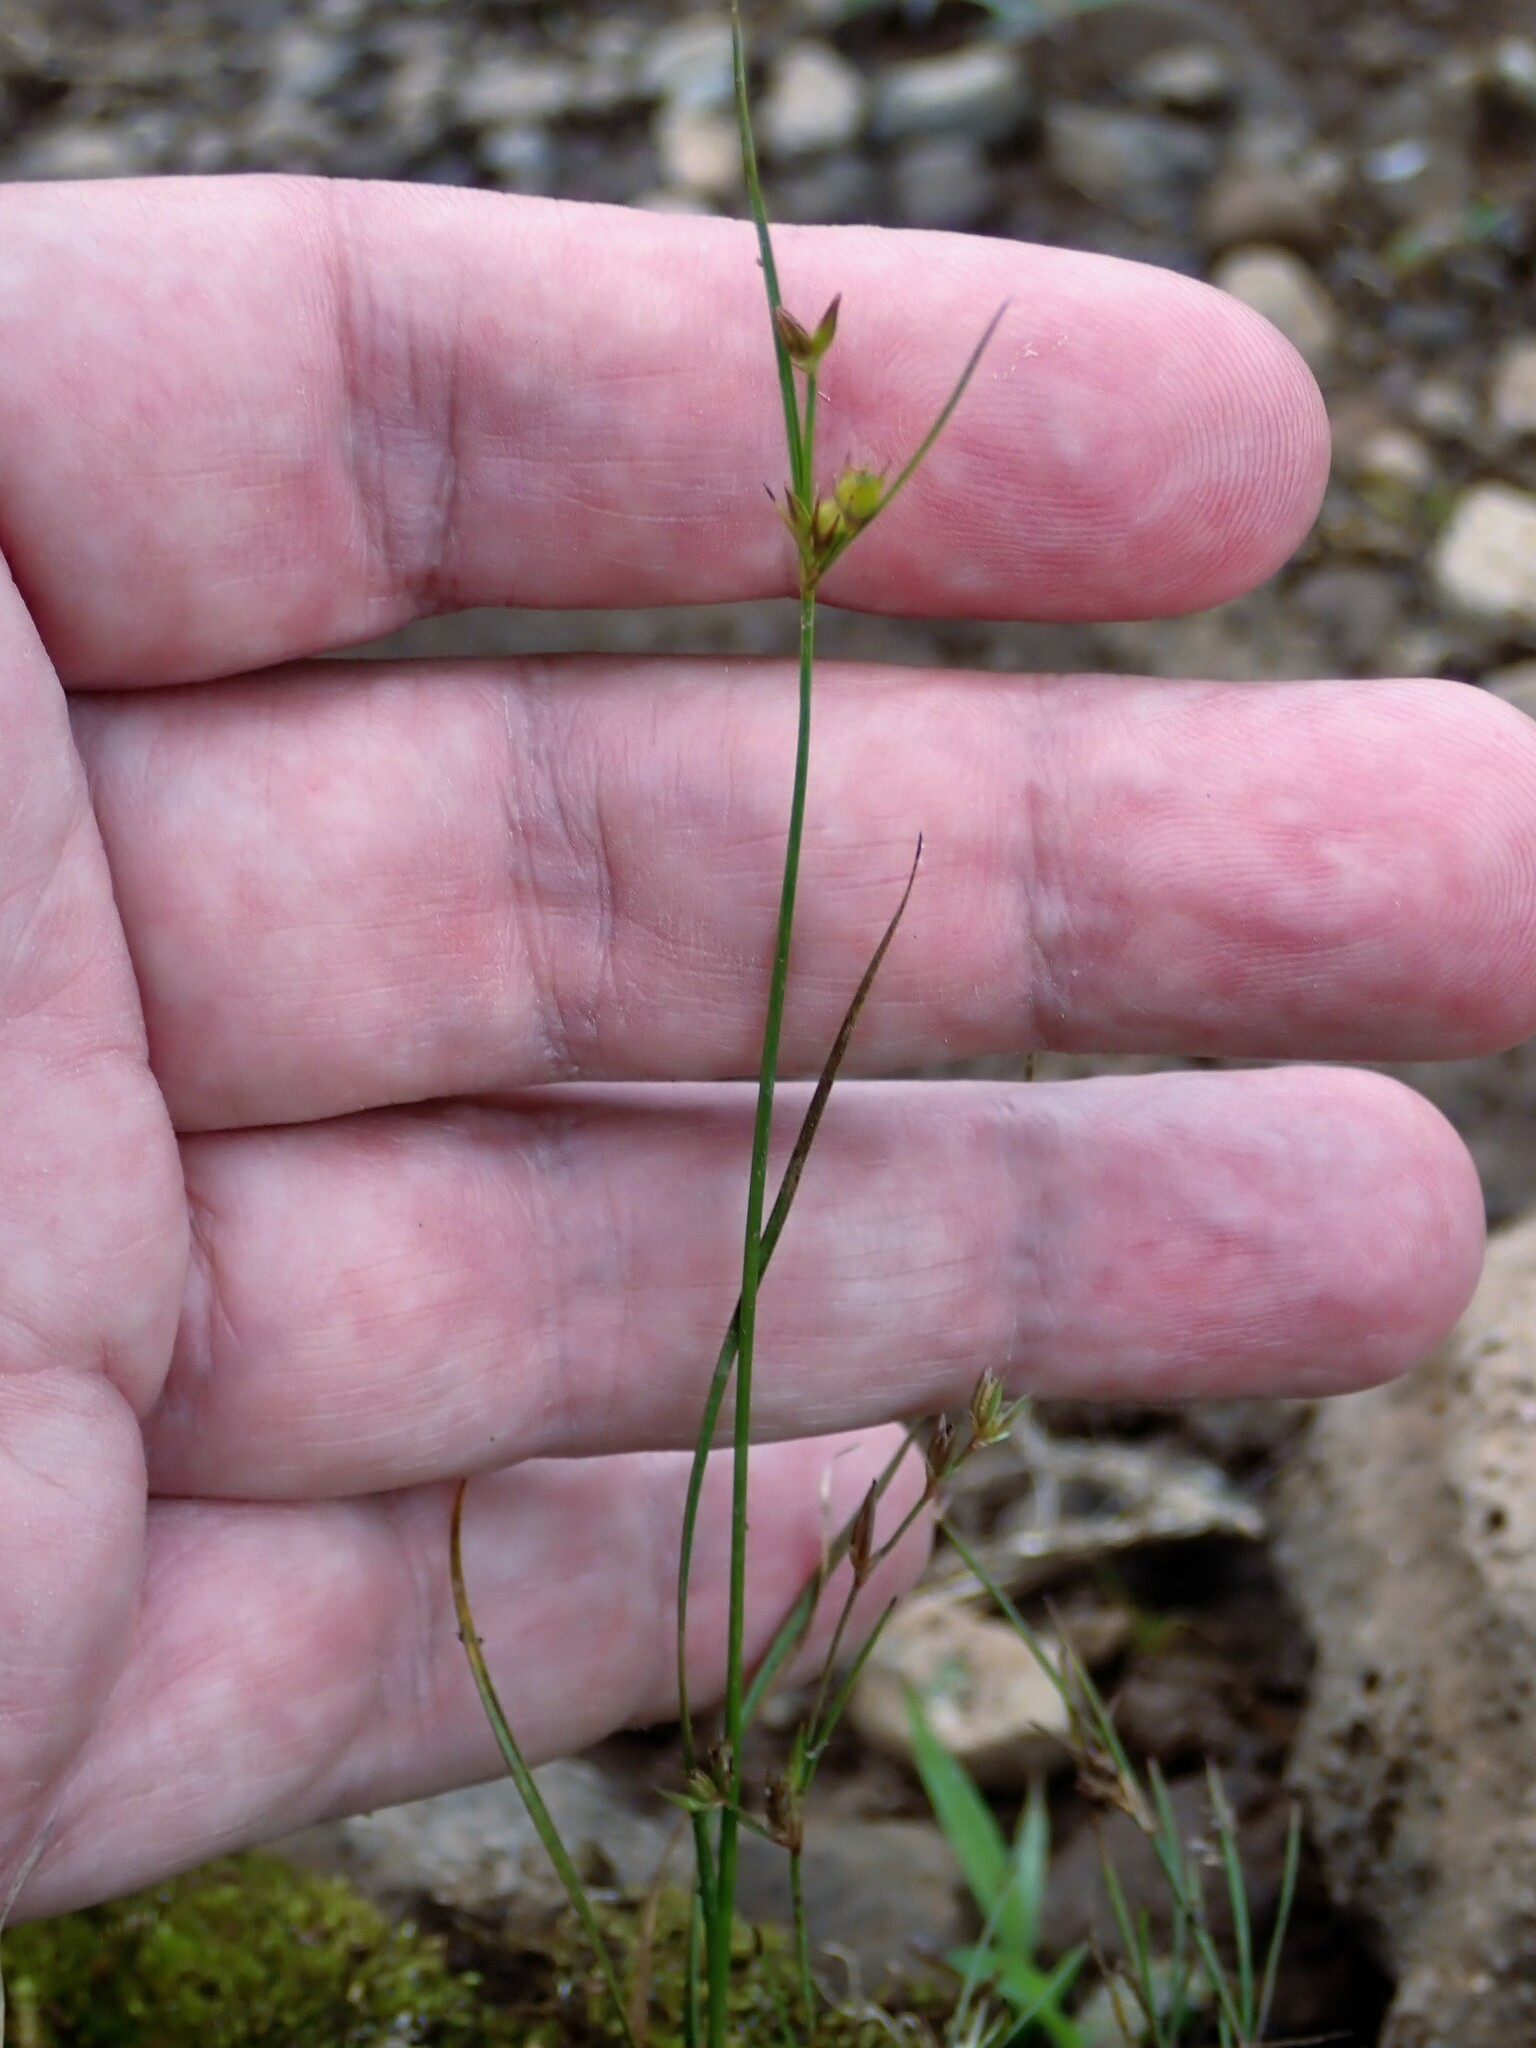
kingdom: Plantae
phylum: Tracheophyta
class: Liliopsida
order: Poales
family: Juncaceae
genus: Juncus
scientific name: Juncus tenuis
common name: Slender rush
